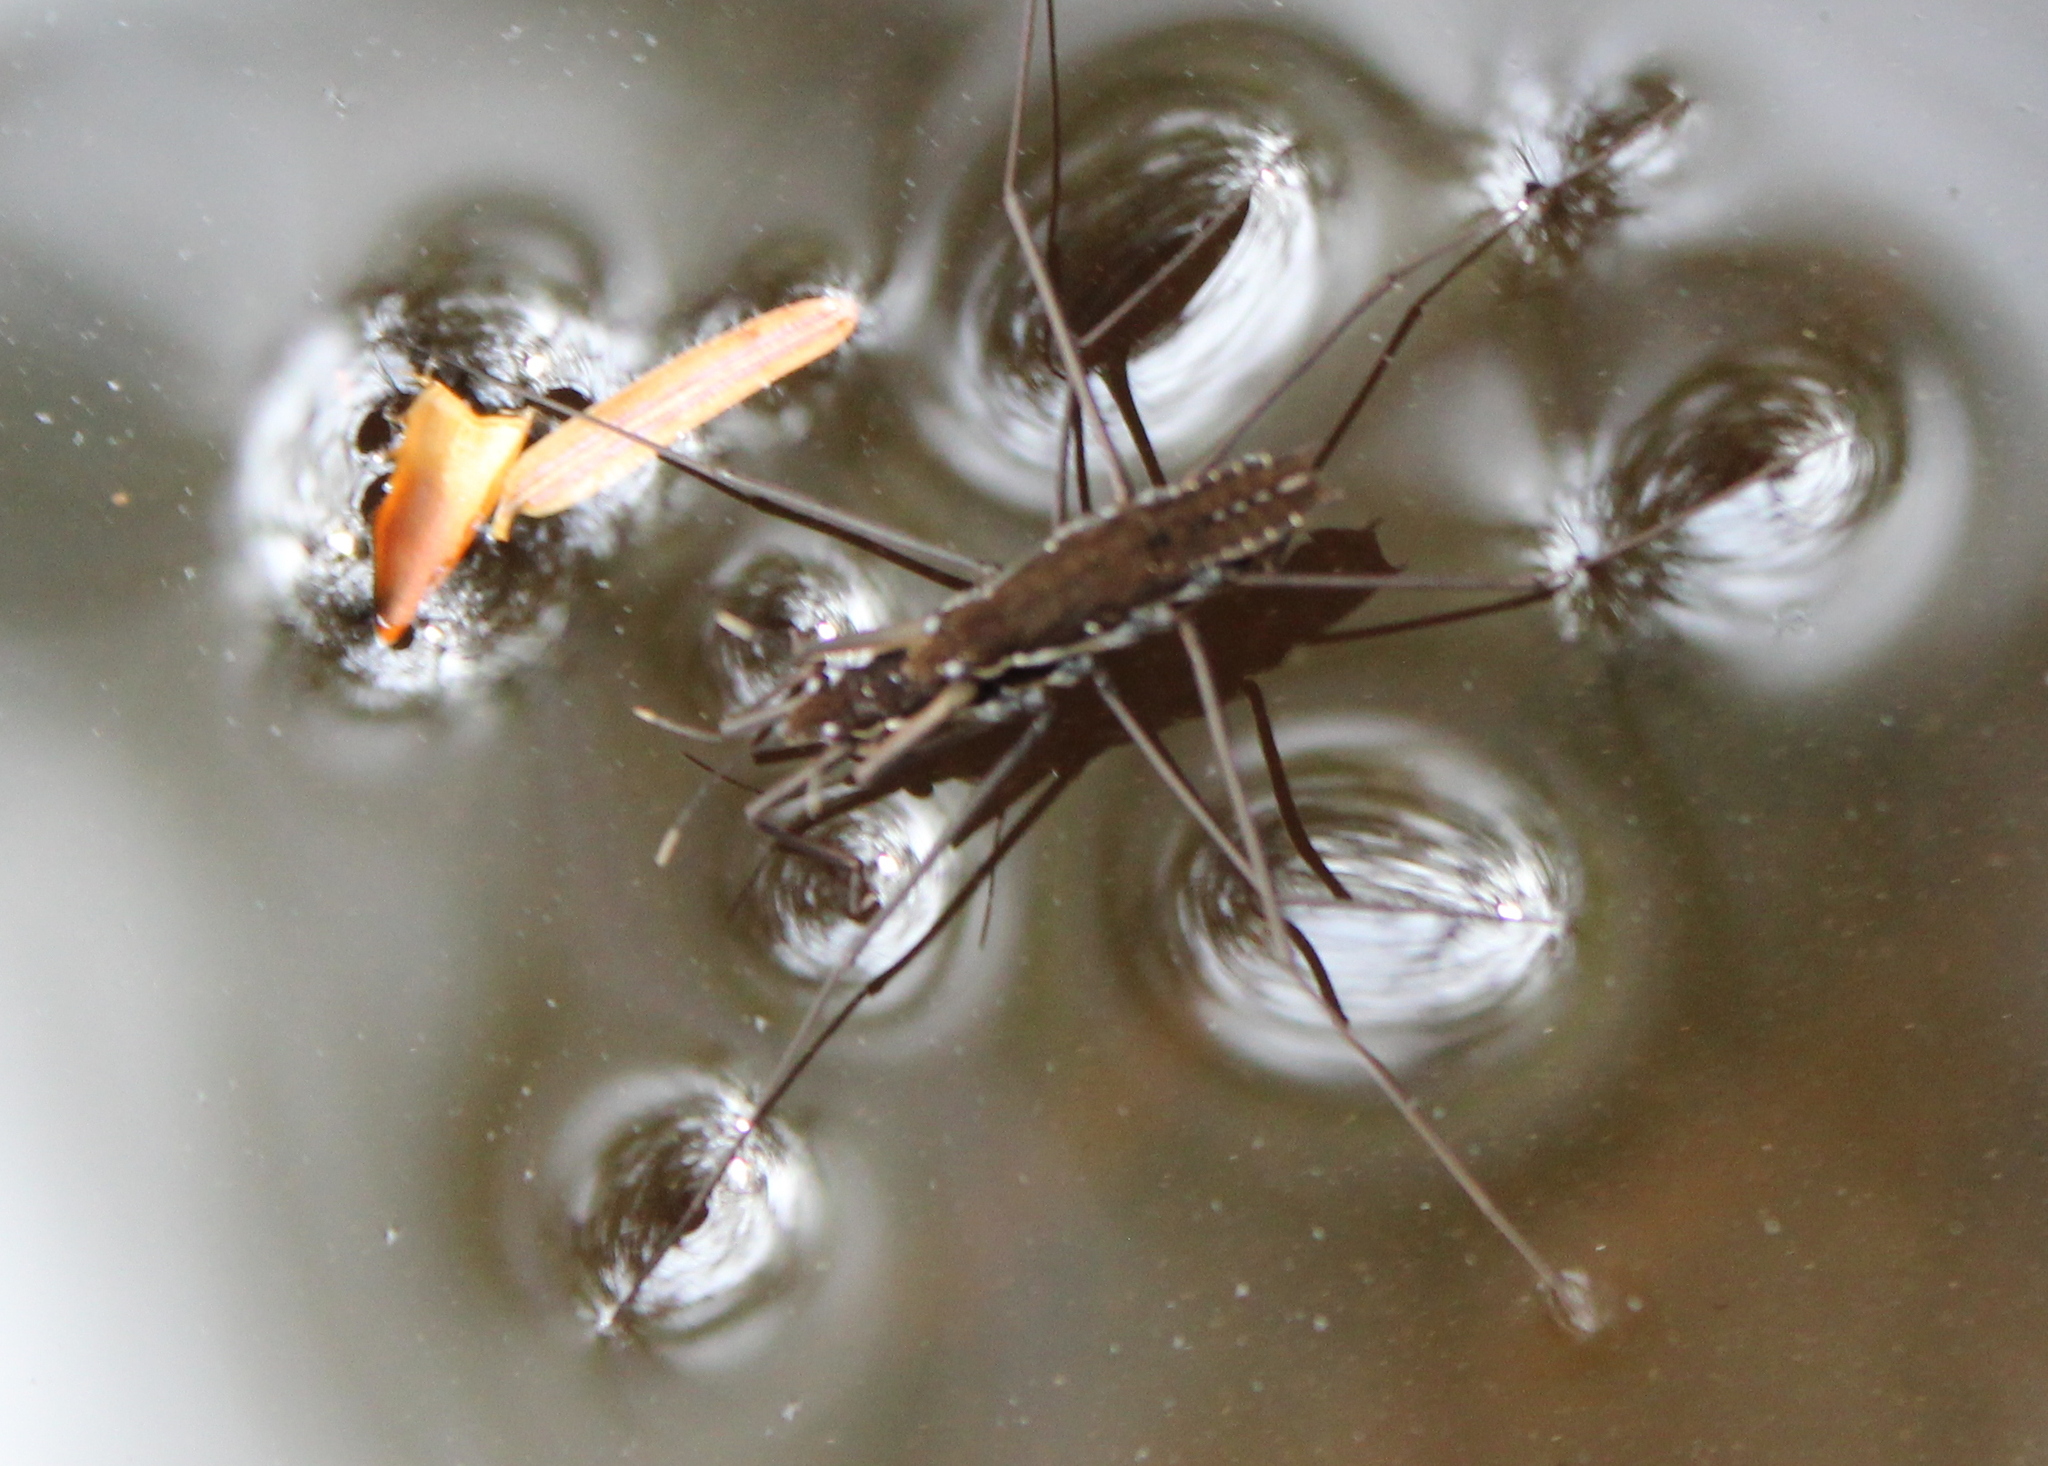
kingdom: Animalia
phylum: Arthropoda
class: Insecta
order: Hemiptera
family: Gerridae
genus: Aquarius
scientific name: Aquarius remigis
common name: Common water strider
